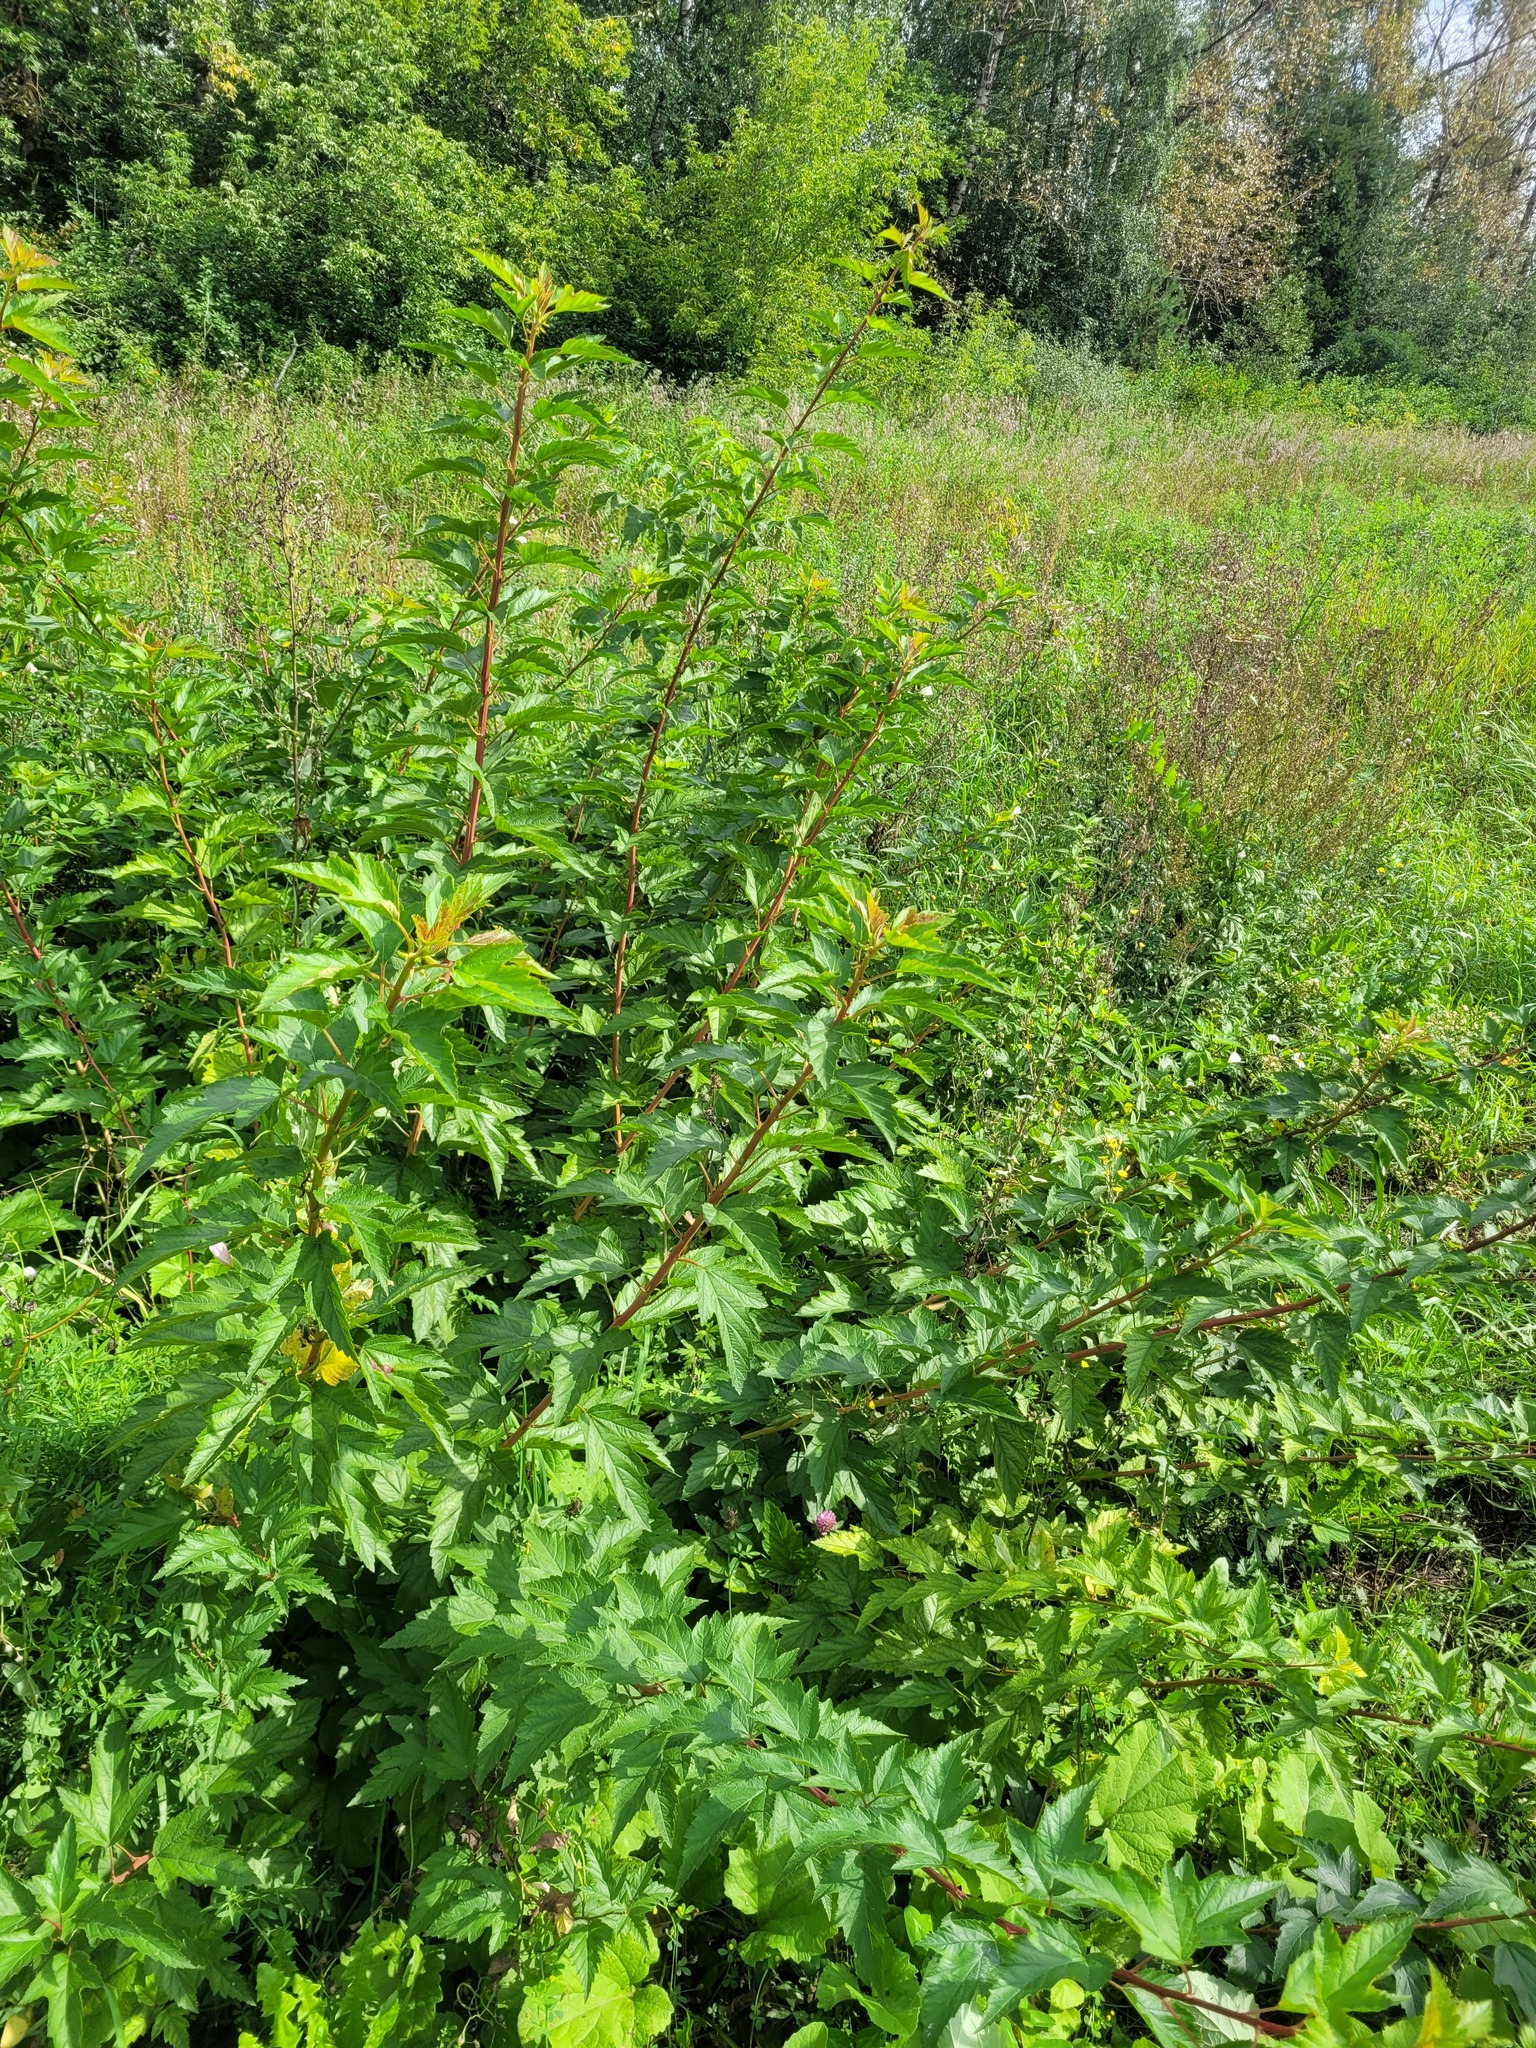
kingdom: Plantae
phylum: Tracheophyta
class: Magnoliopsida
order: Rosales
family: Rosaceae
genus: Physocarpus
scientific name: Physocarpus opulifolius
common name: Ninebark
